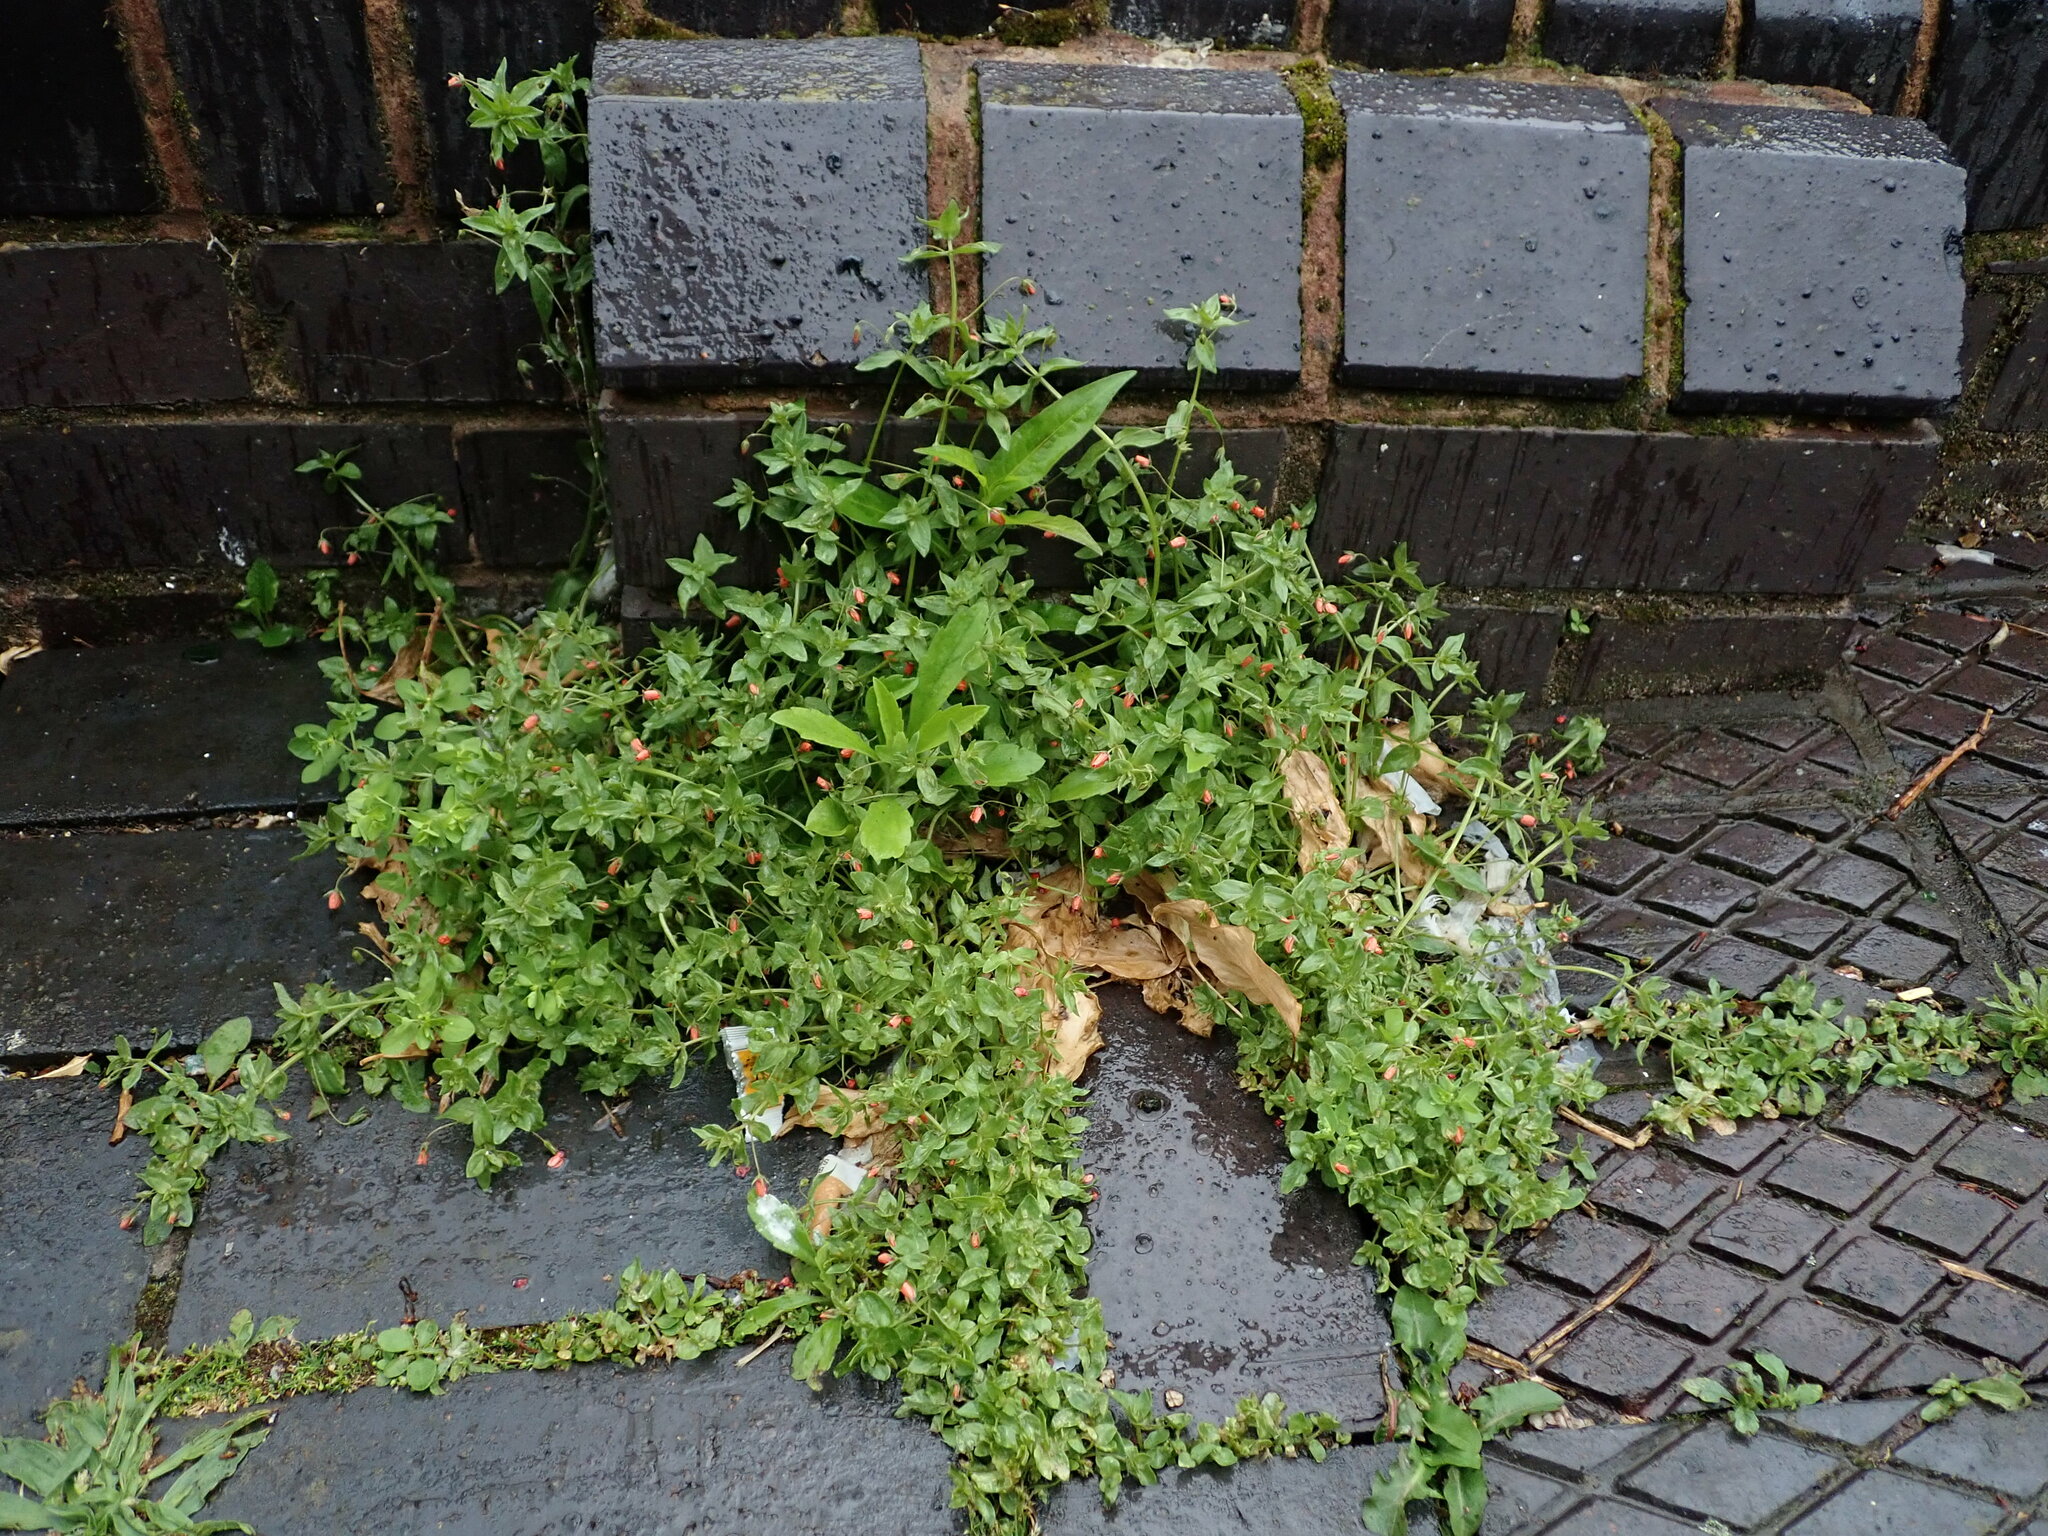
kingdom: Plantae
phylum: Tracheophyta
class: Magnoliopsida
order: Ericales
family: Primulaceae
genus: Lysimachia
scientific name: Lysimachia arvensis
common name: Scarlet pimpernel
